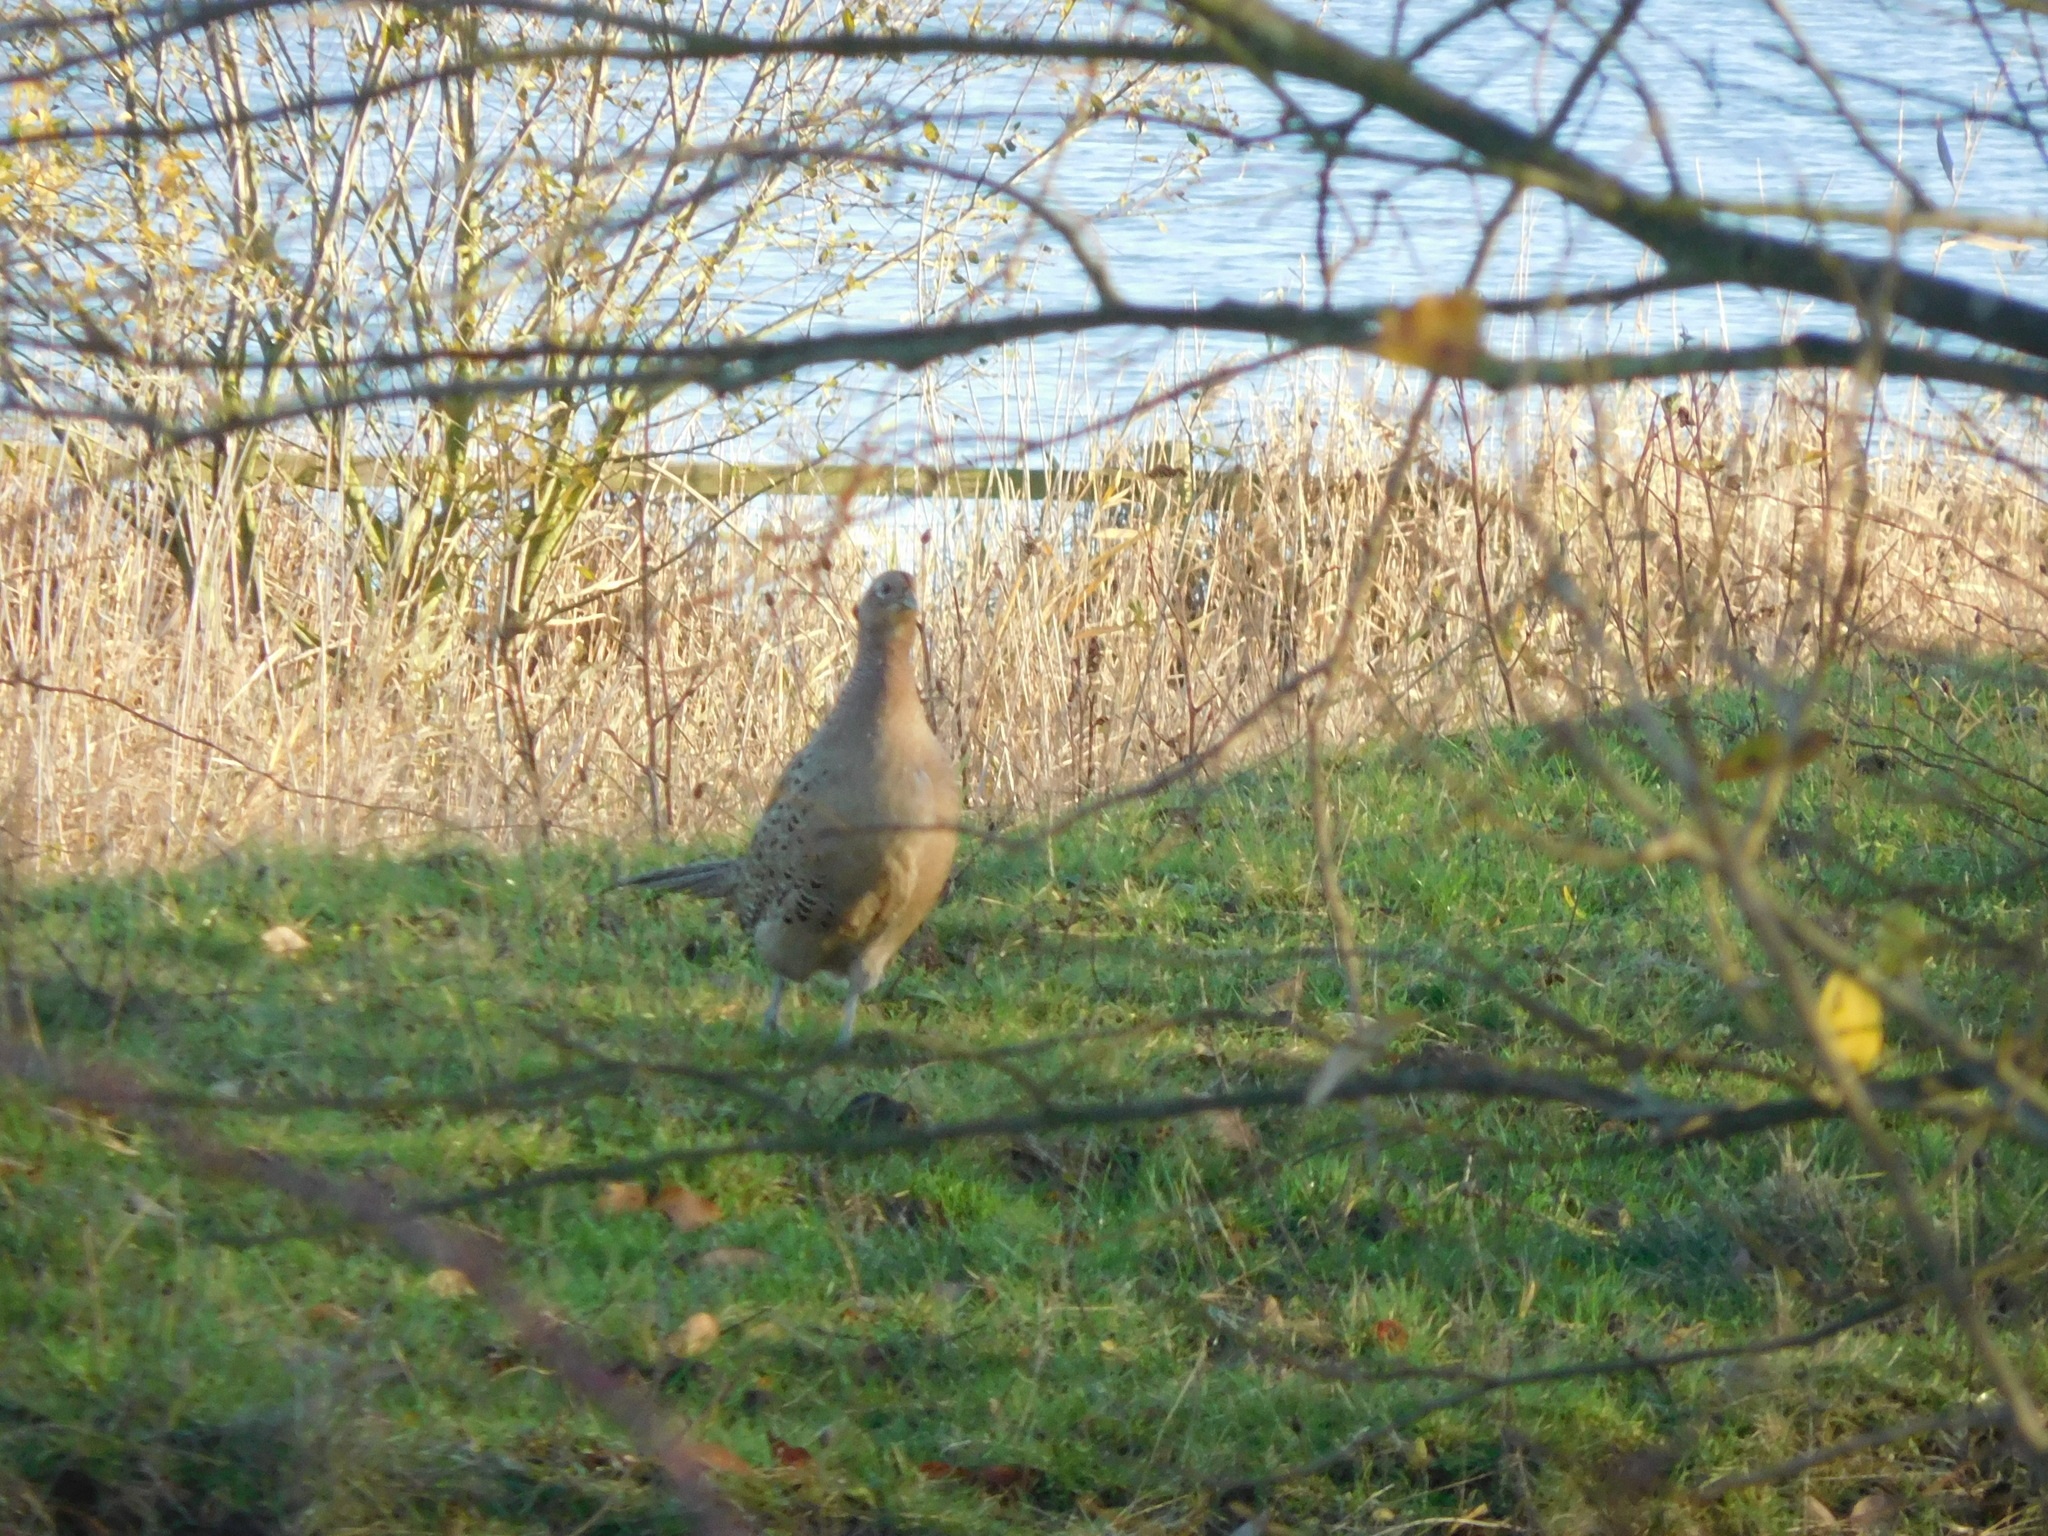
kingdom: Animalia
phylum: Chordata
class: Aves
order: Galliformes
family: Phasianidae
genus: Phasianus
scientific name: Phasianus colchicus
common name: Common pheasant
